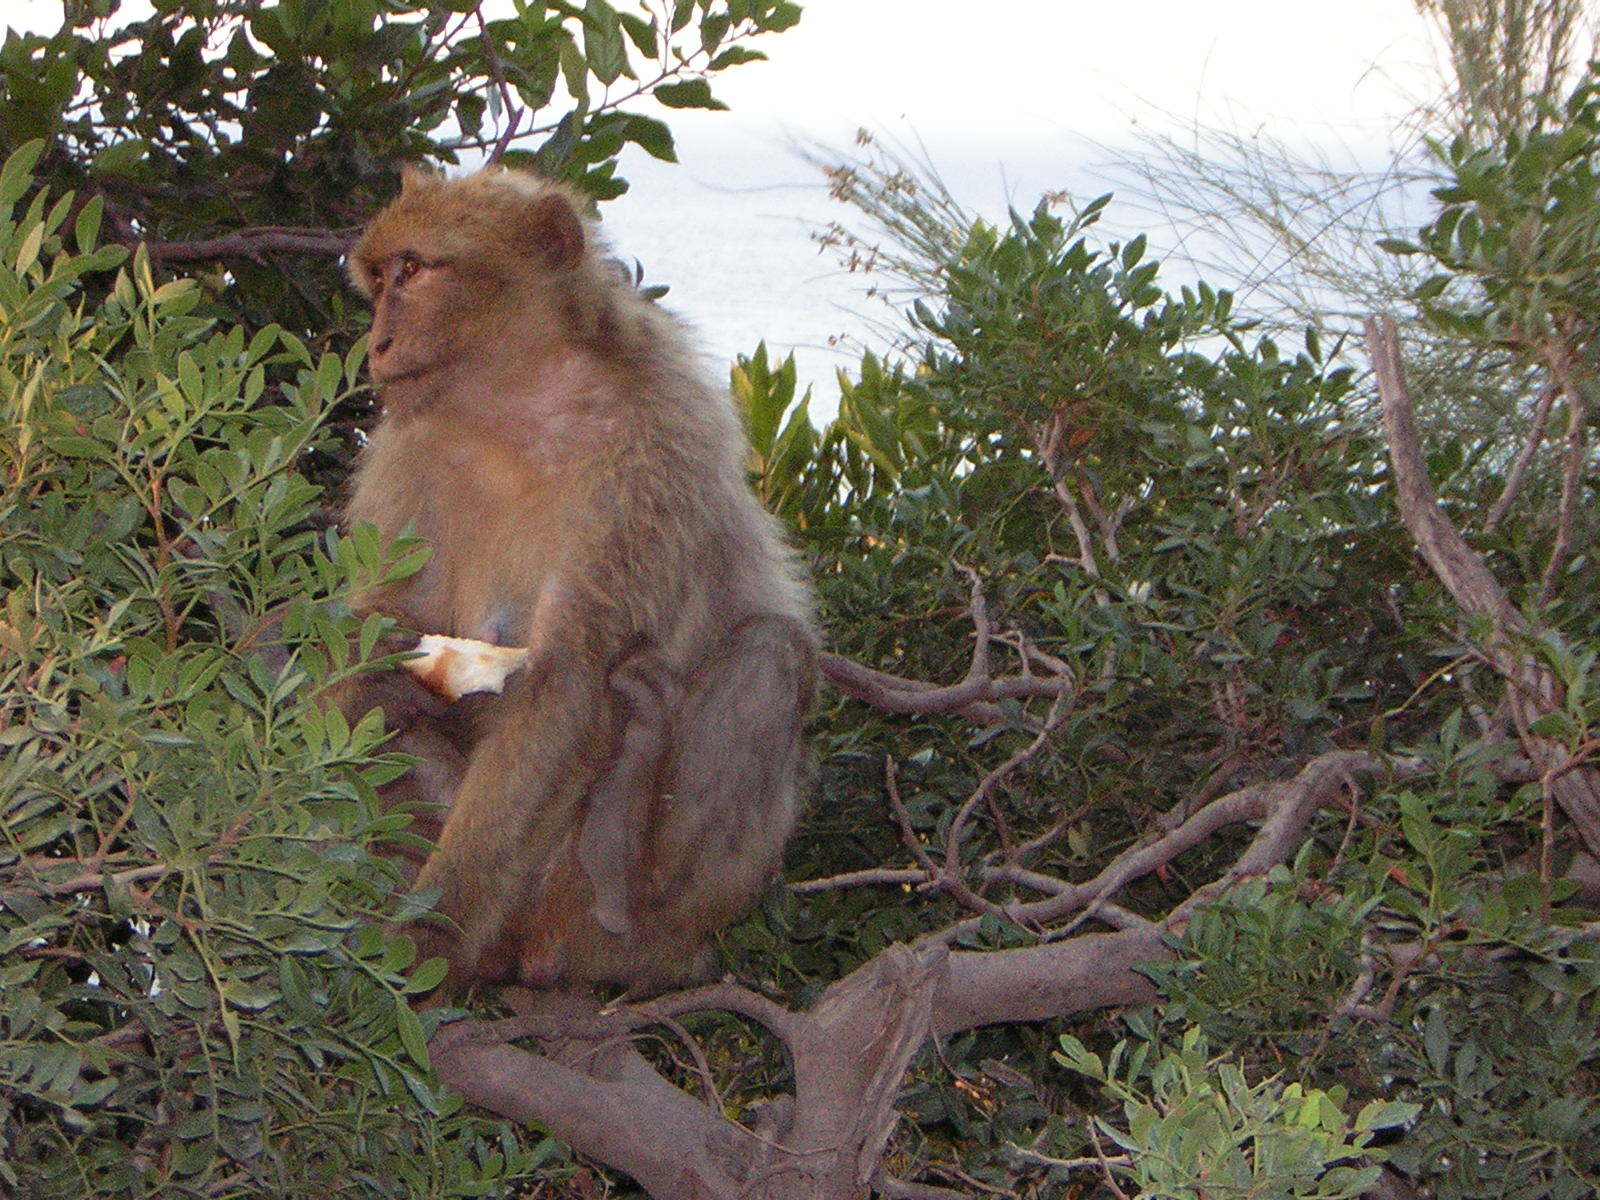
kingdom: Animalia
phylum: Chordata
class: Mammalia
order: Primates
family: Cercopithecidae
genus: Macaca
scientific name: Macaca sylvanus
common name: Barbary macaque
